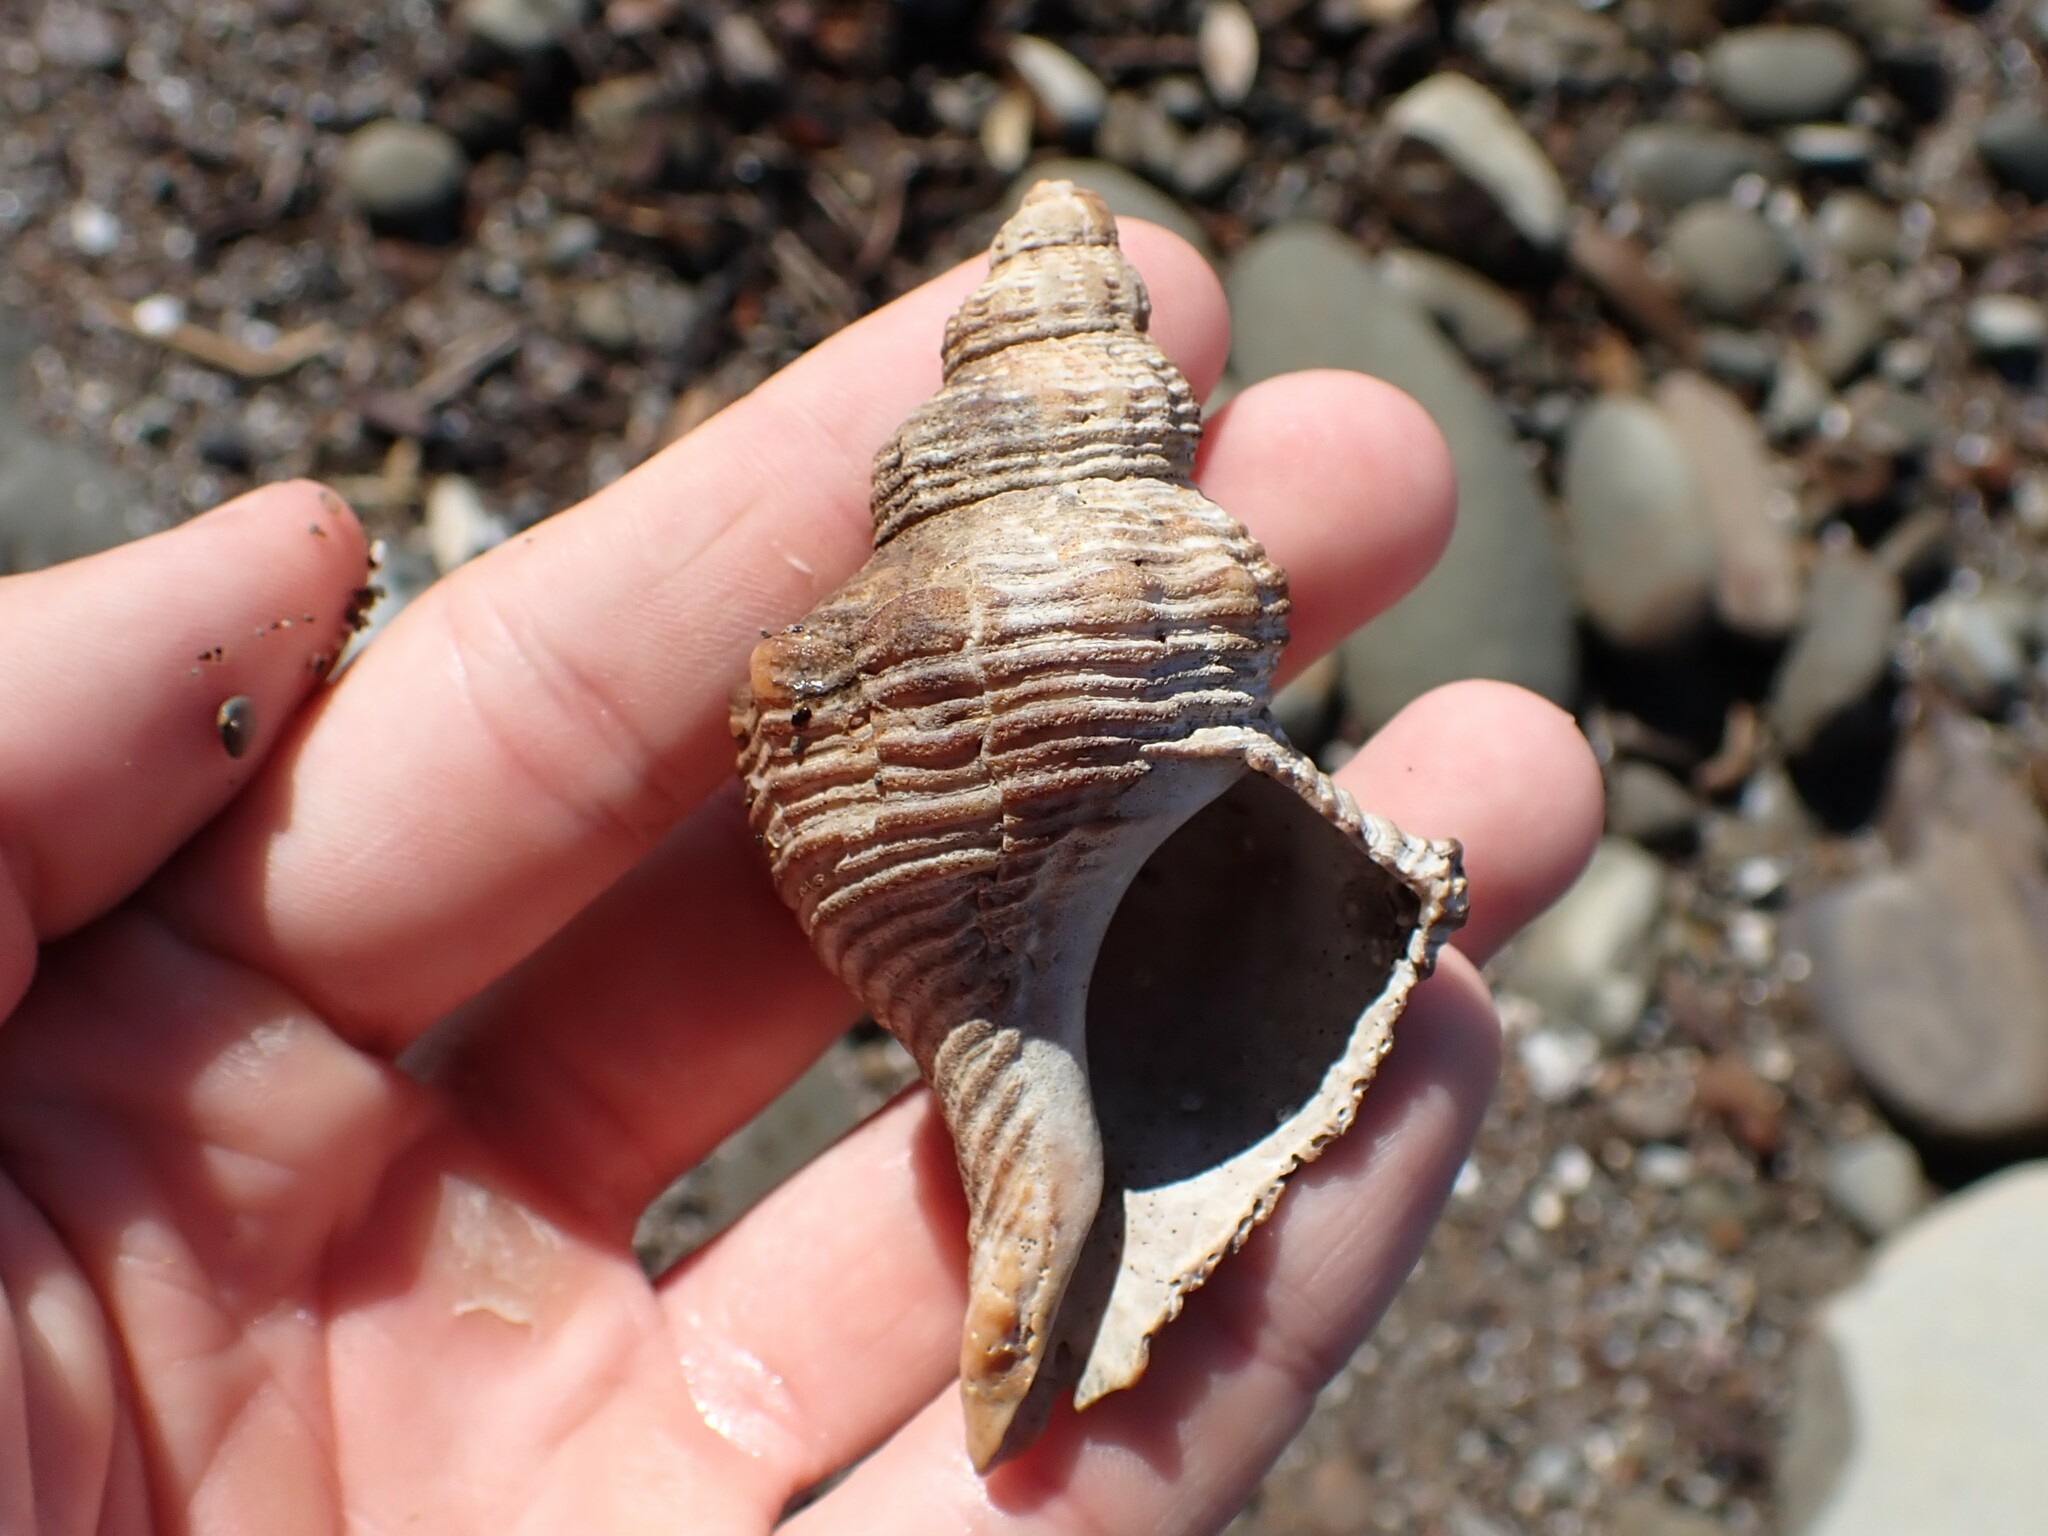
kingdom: Animalia
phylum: Mollusca
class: Gastropoda
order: Neogastropoda
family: Austrosiphonidae
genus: Penion
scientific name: Penion sulcatus
